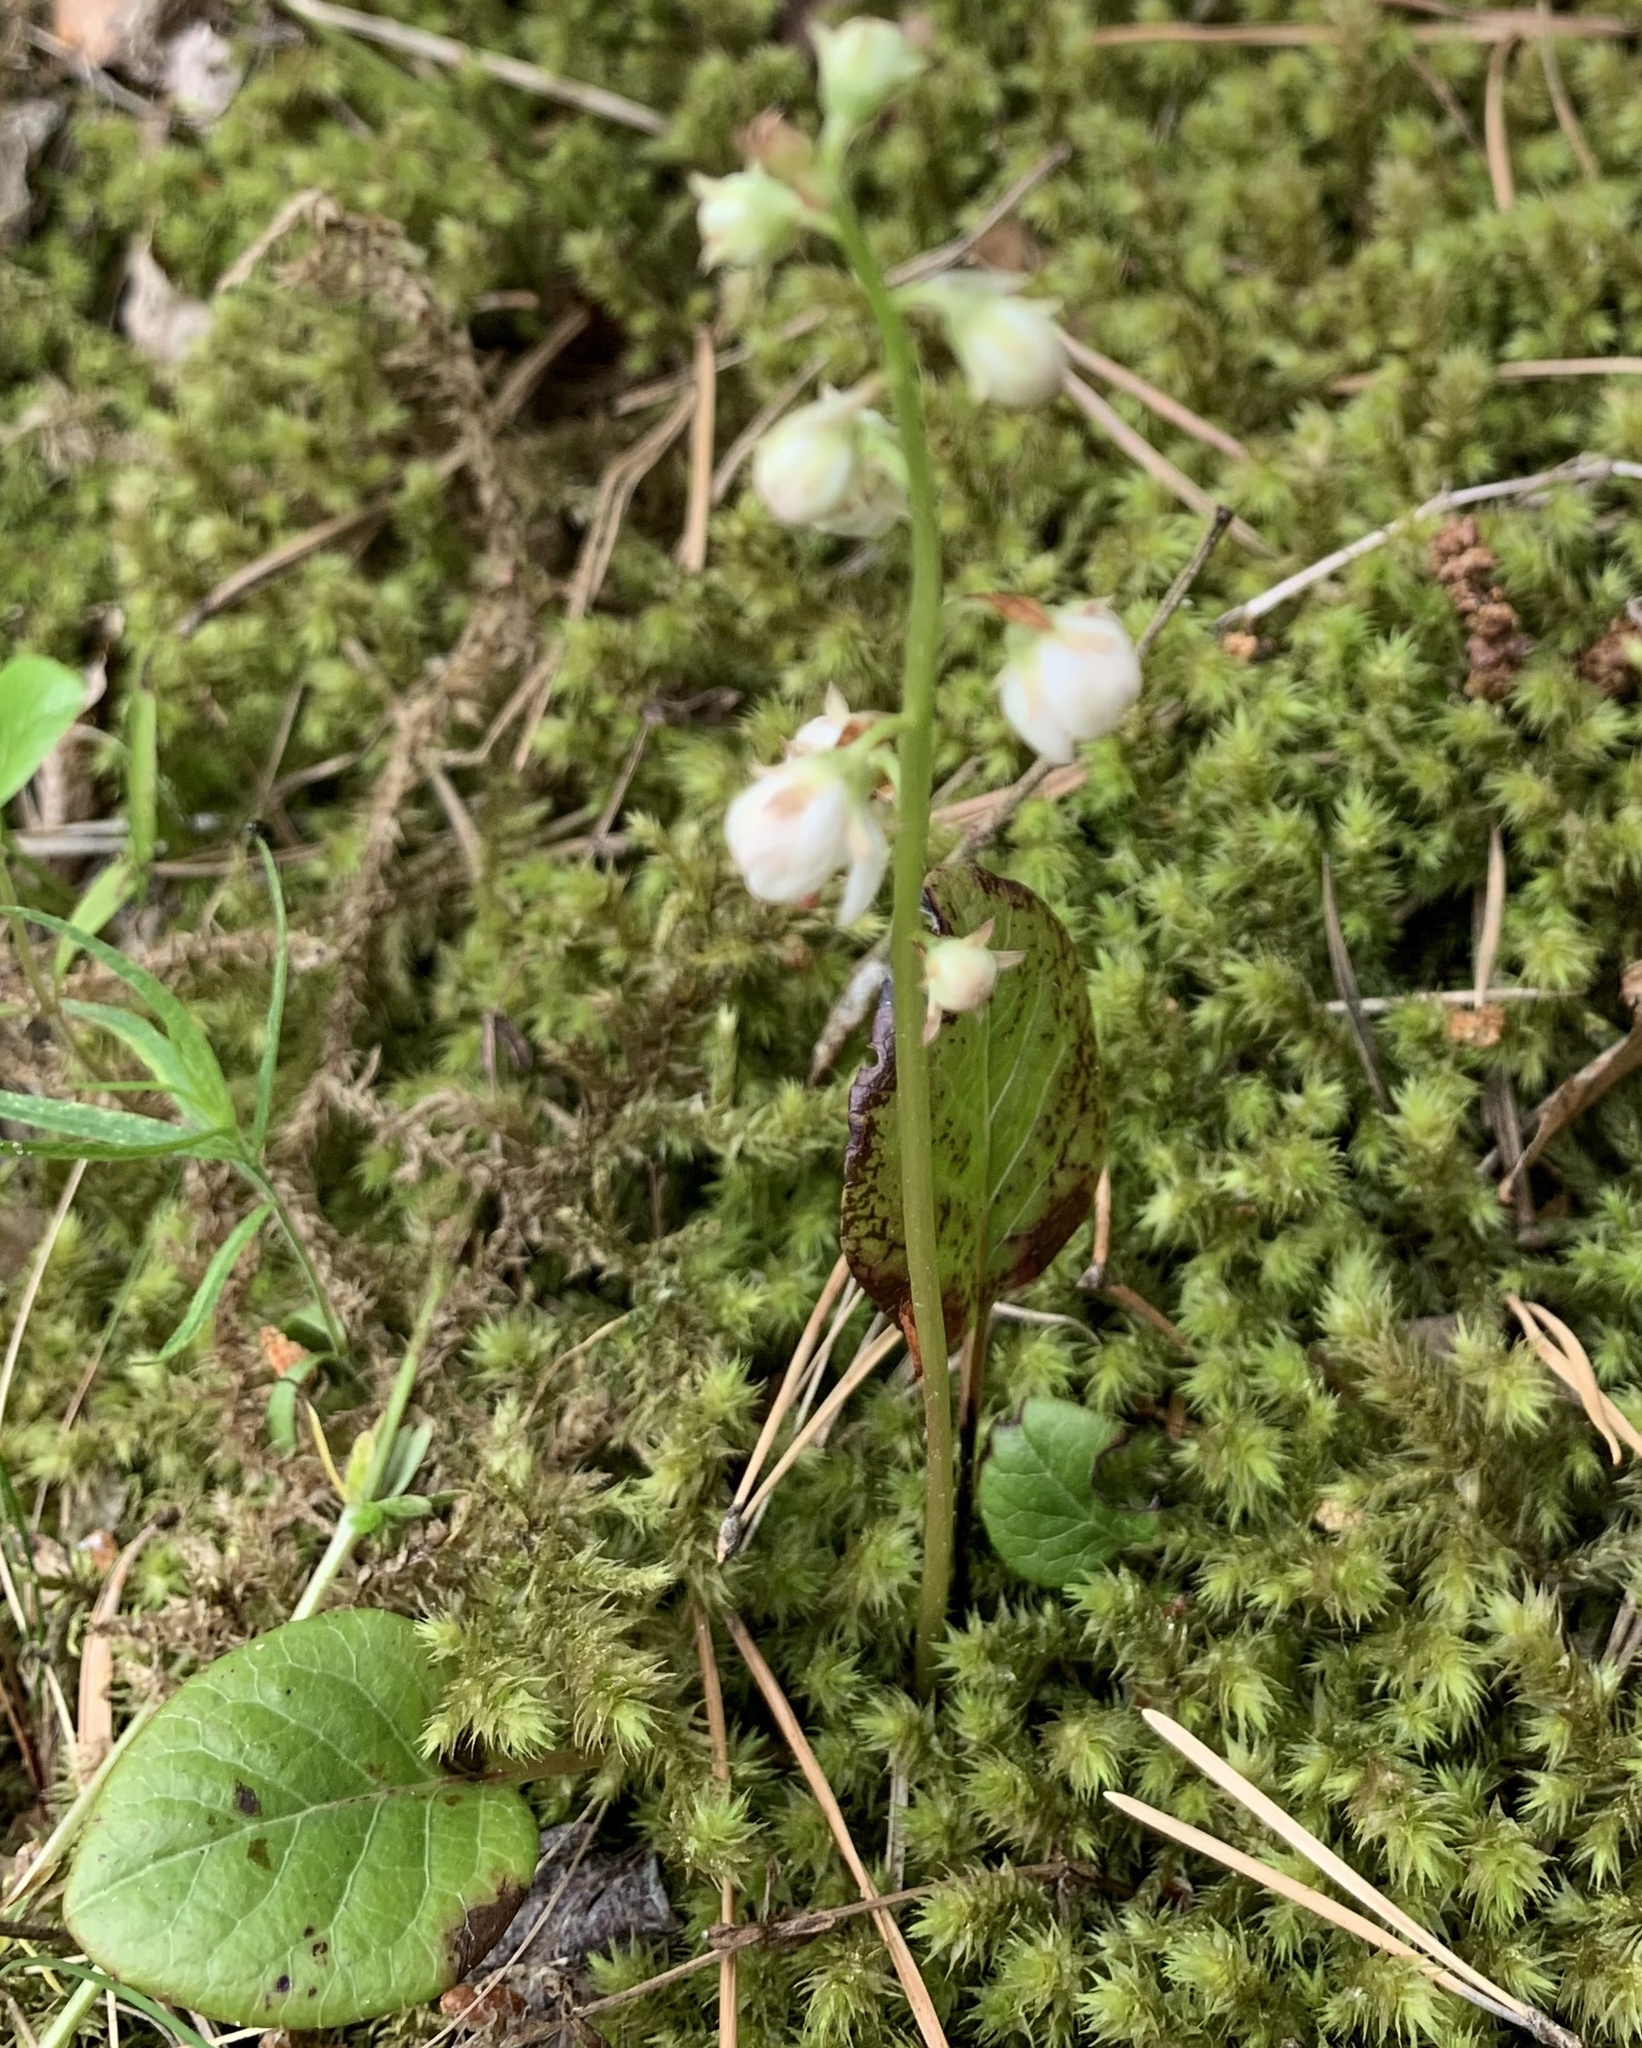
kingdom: Plantae
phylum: Tracheophyta
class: Magnoliopsida
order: Ericales
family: Ericaceae
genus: Pyrola
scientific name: Pyrola rotundifolia
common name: Round-leaved wintergreen
